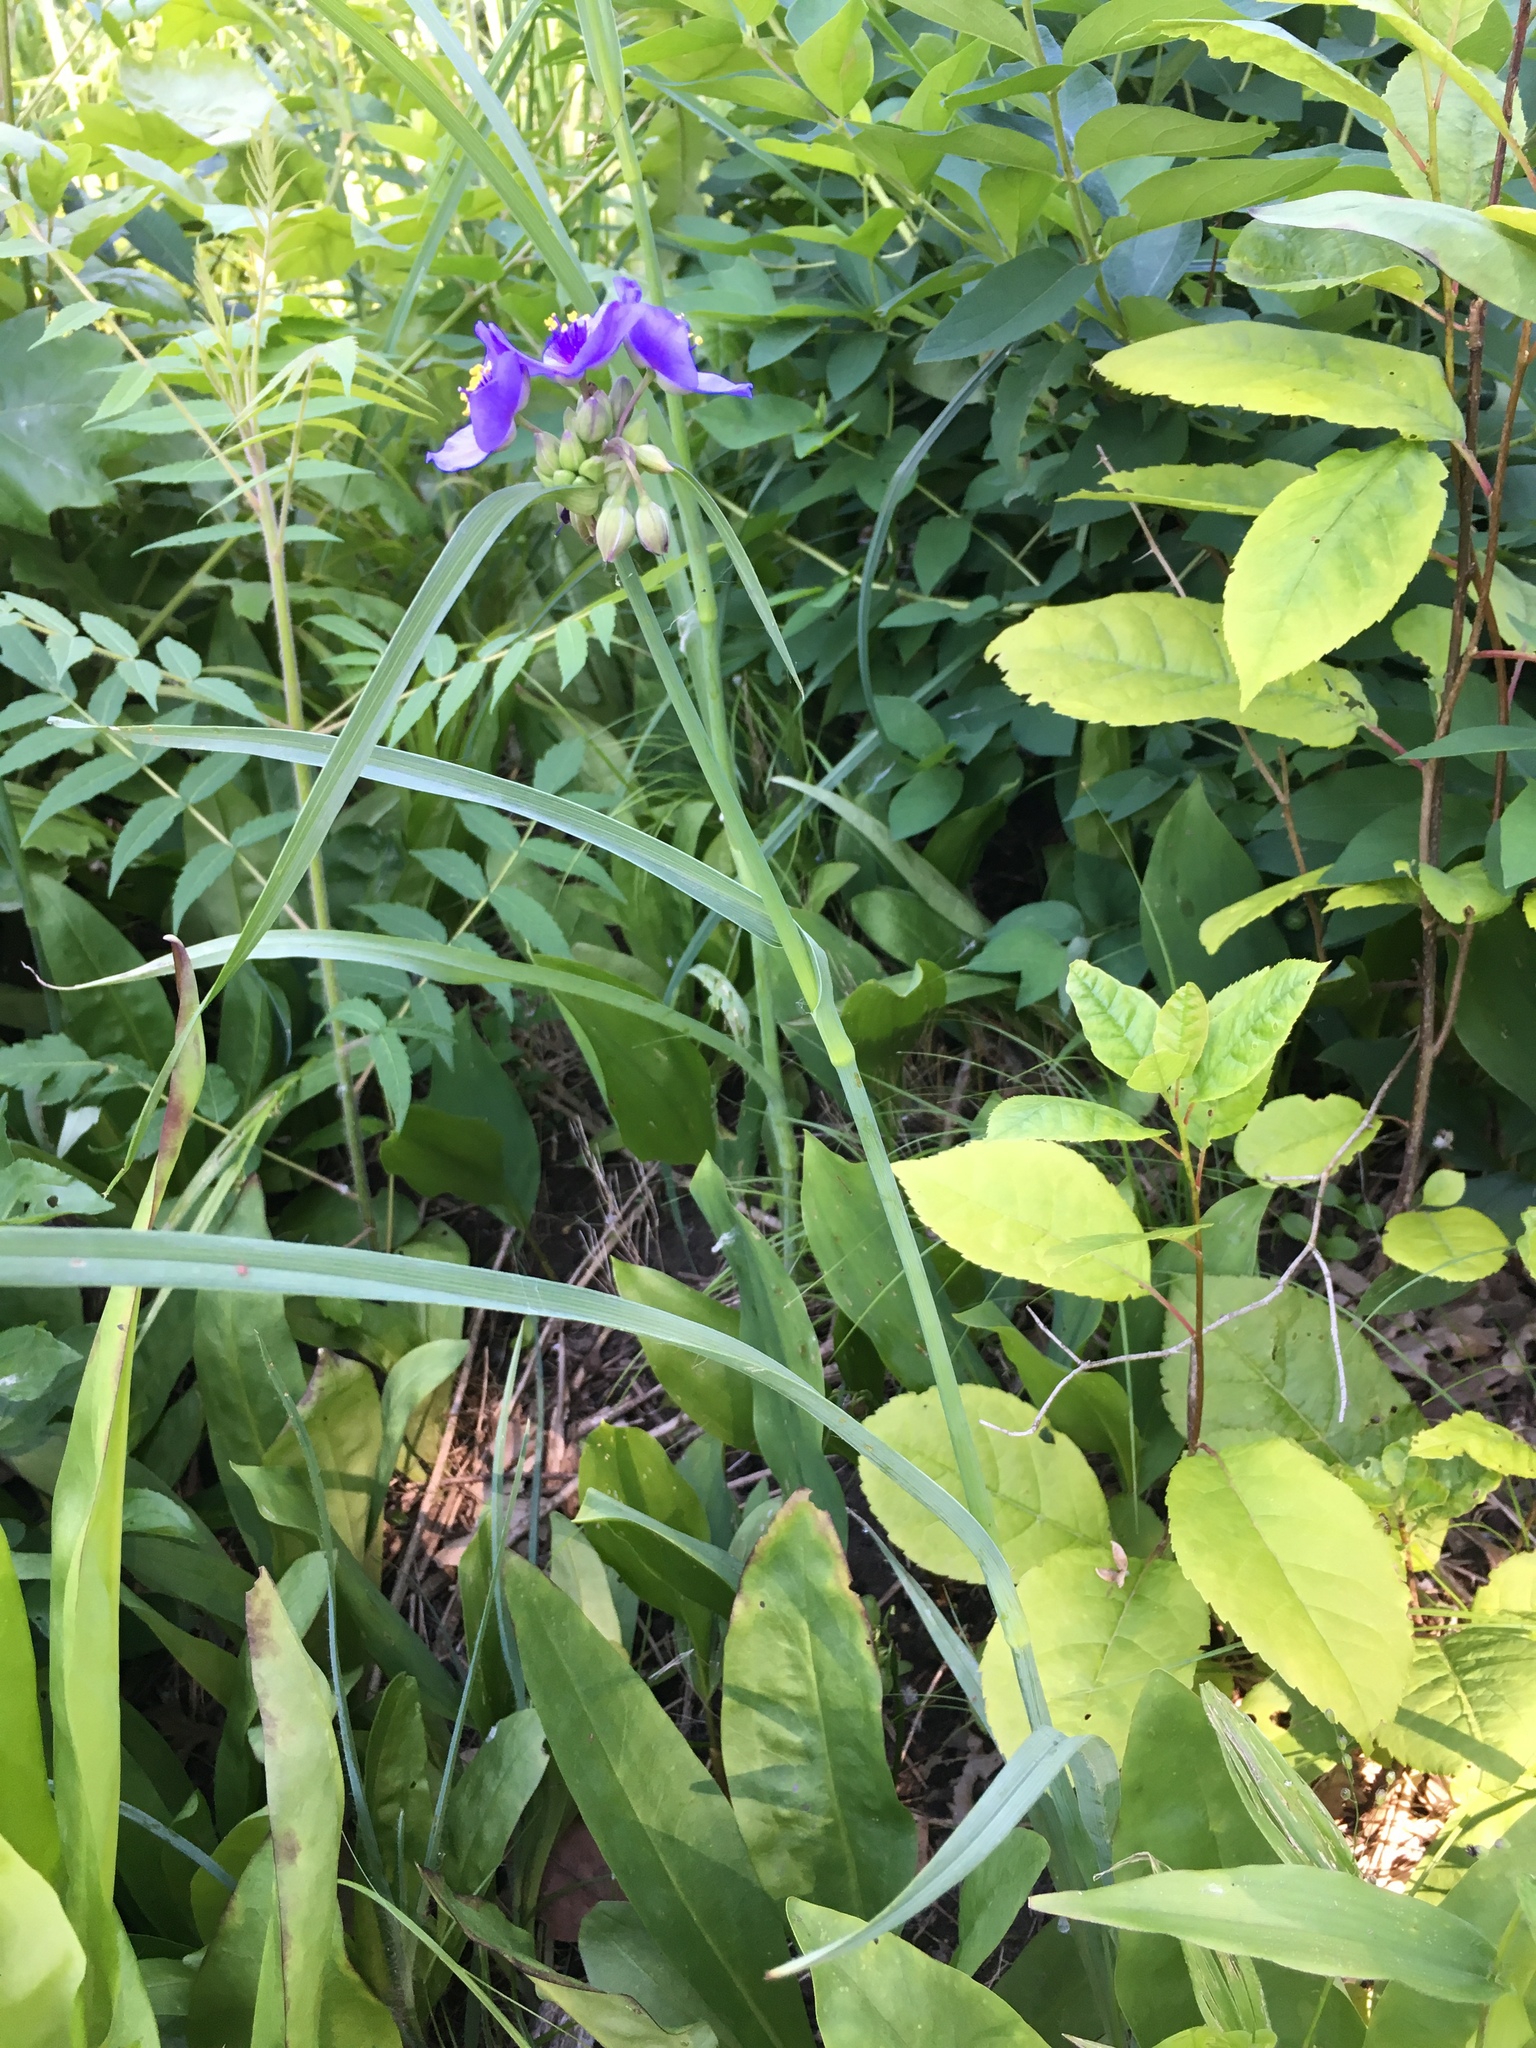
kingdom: Plantae
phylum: Tracheophyta
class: Liliopsida
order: Commelinales
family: Commelinaceae
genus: Tradescantia
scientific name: Tradescantia ohiensis
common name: Ohio spiderwort
